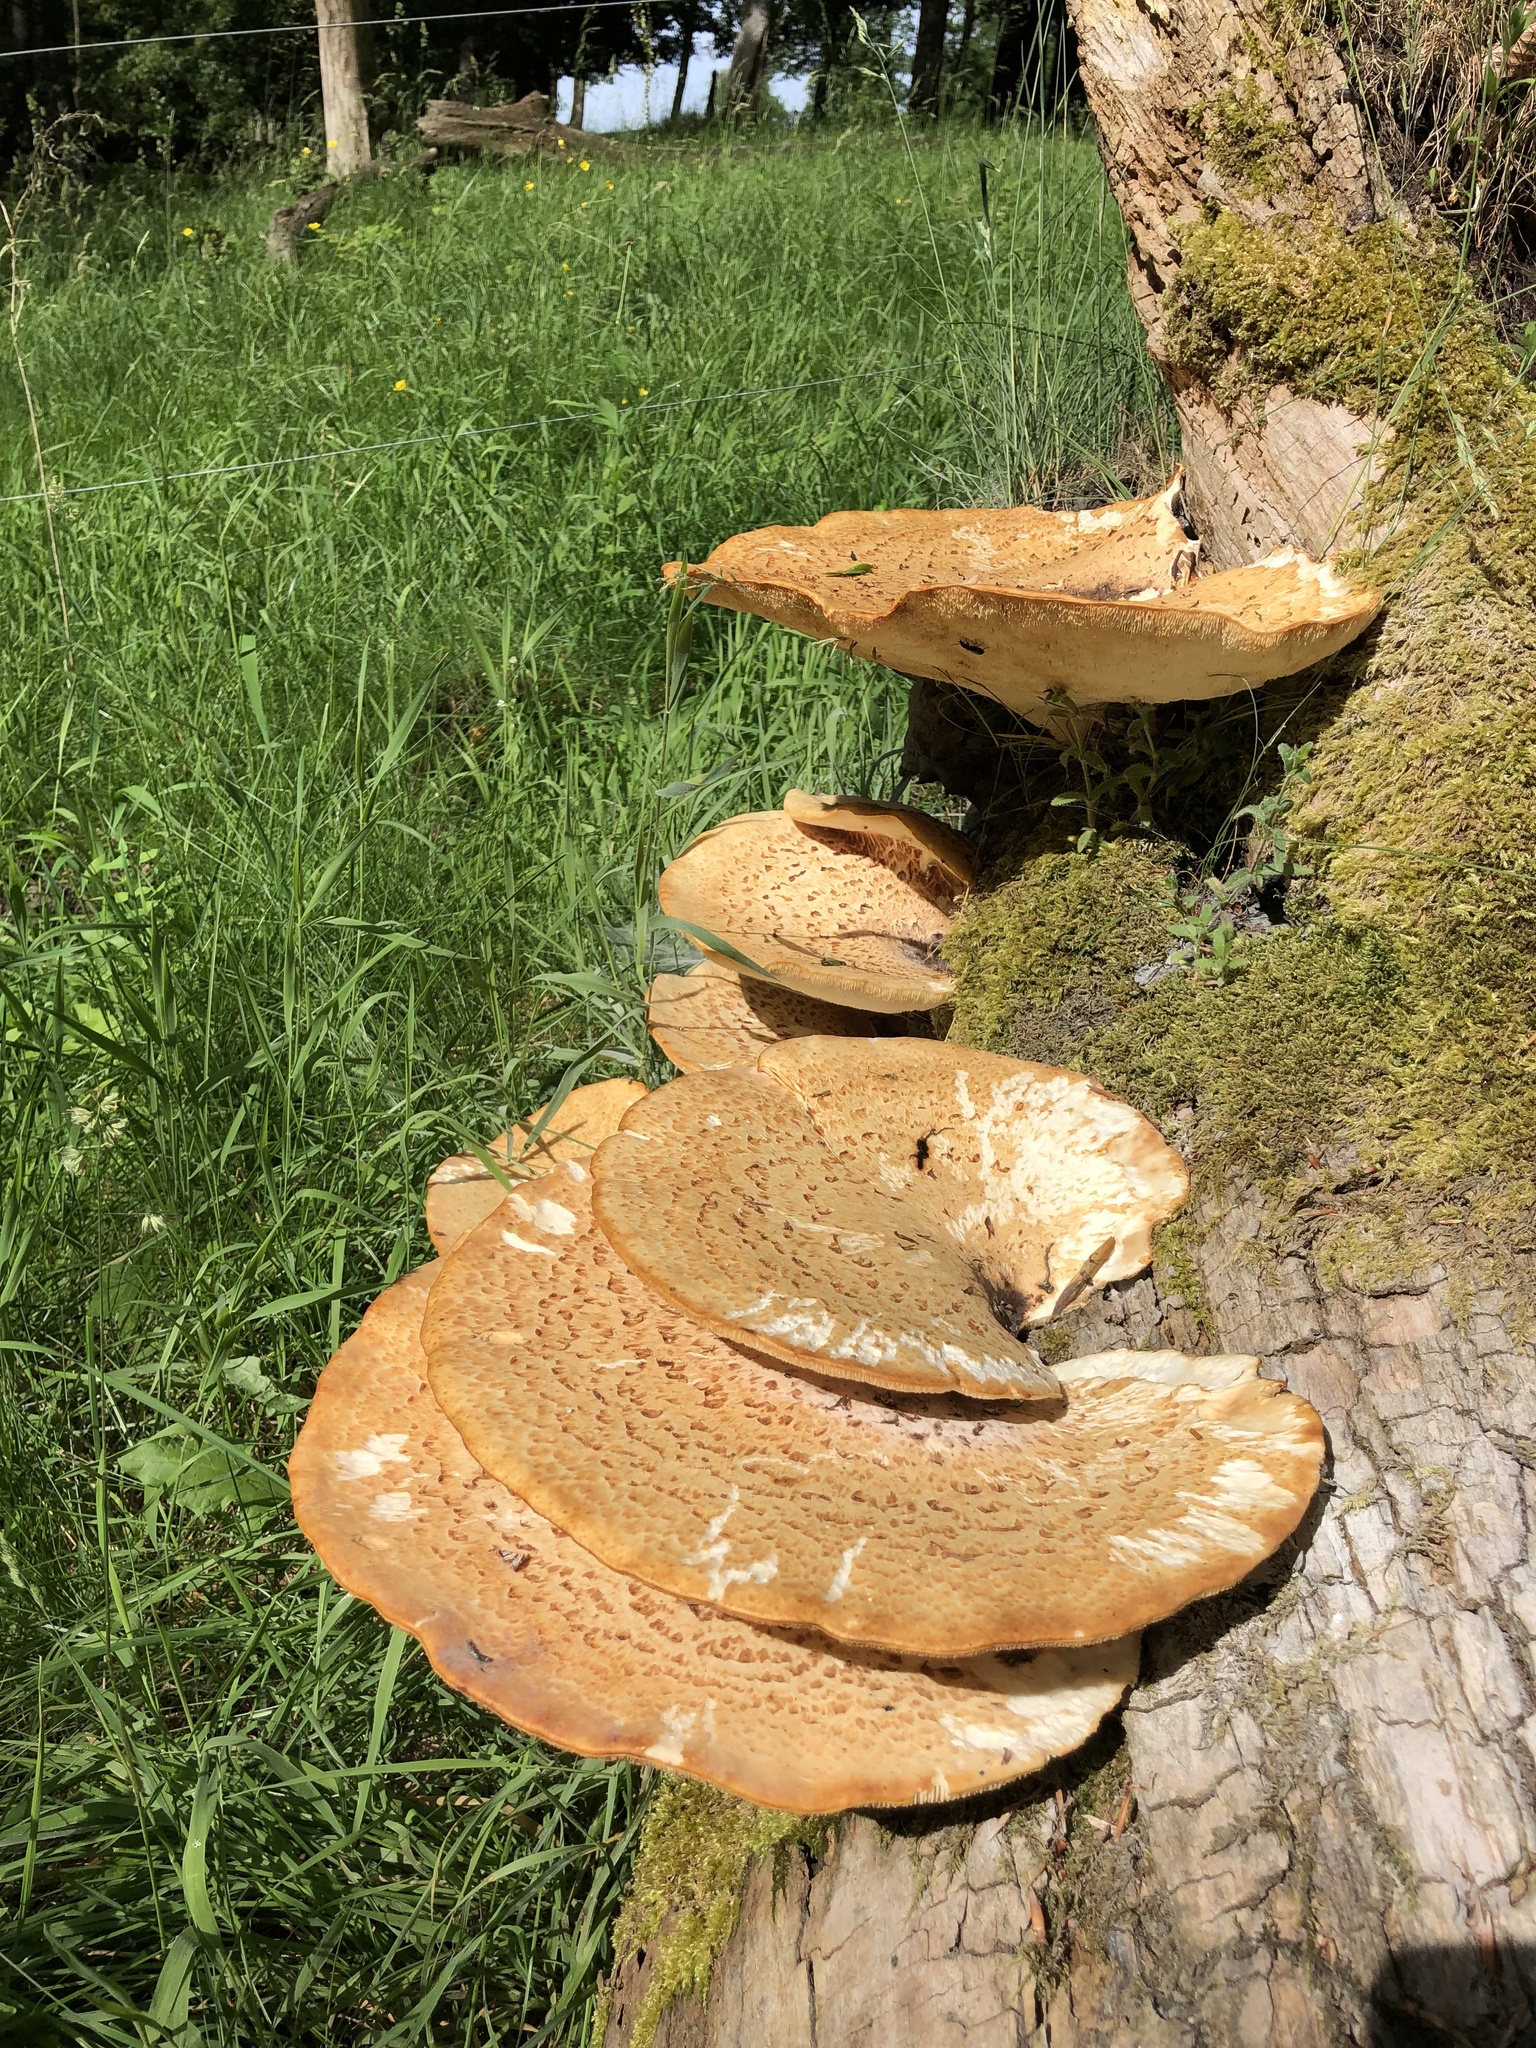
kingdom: Fungi
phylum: Basidiomycota
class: Agaricomycetes
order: Polyporales
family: Polyporaceae
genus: Cerioporus
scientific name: Cerioporus squamosus
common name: Dryad's saddle
